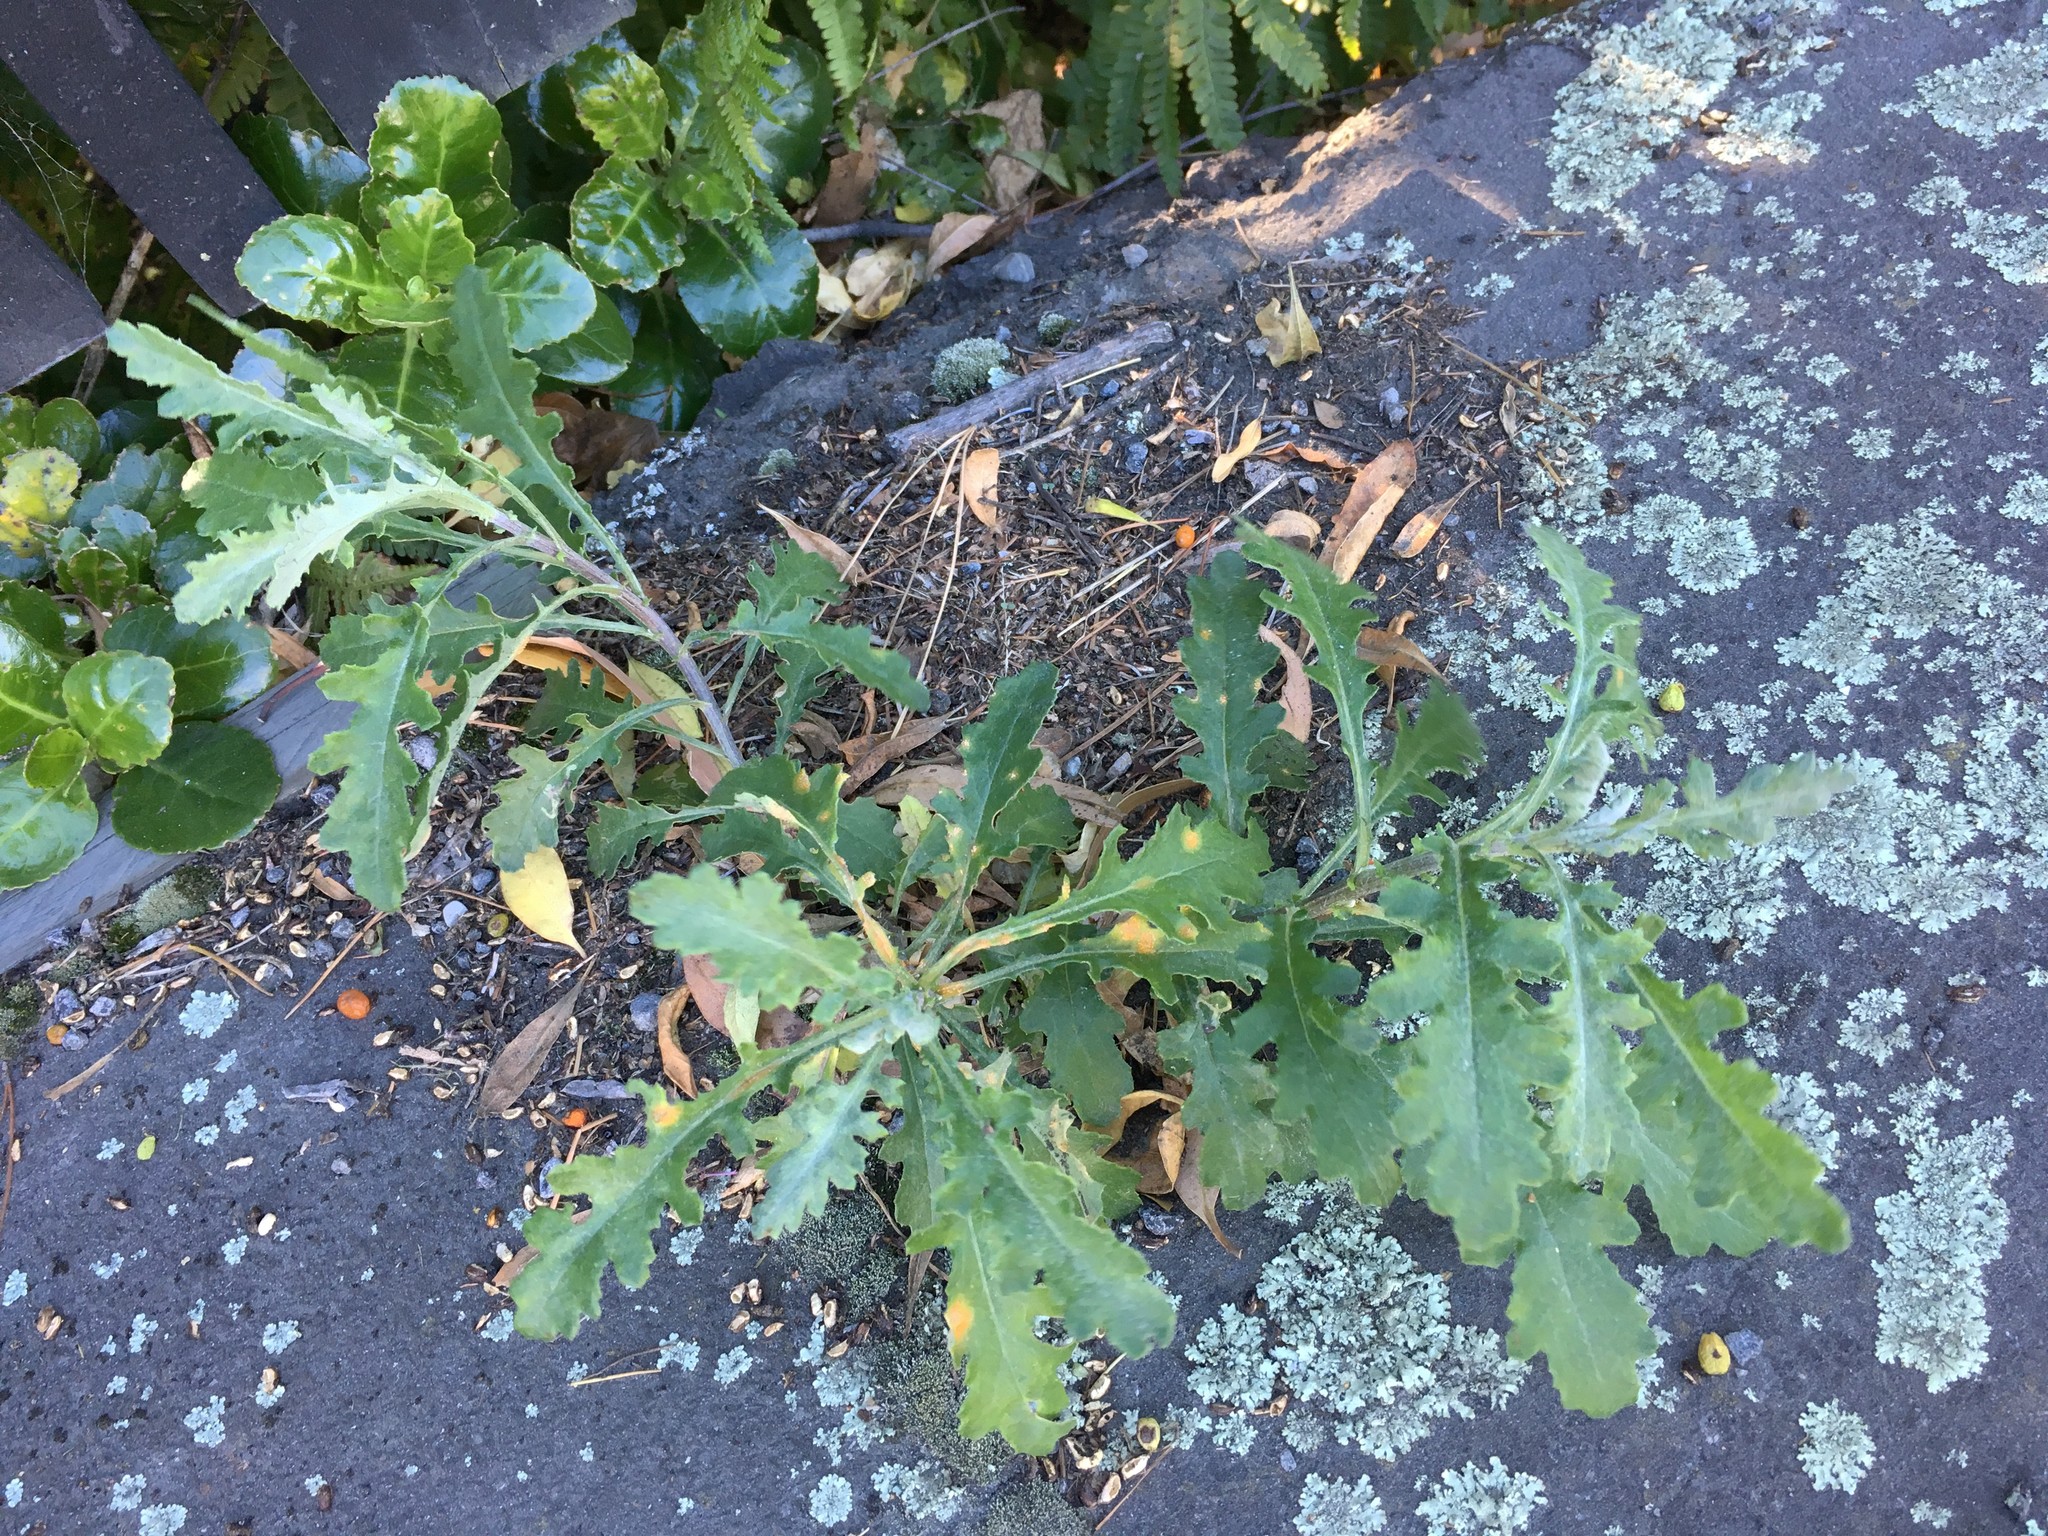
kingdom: Plantae
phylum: Tracheophyta
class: Magnoliopsida
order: Asterales
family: Asteraceae
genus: Senecio
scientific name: Senecio glomeratus
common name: Cutleaf burnweed
